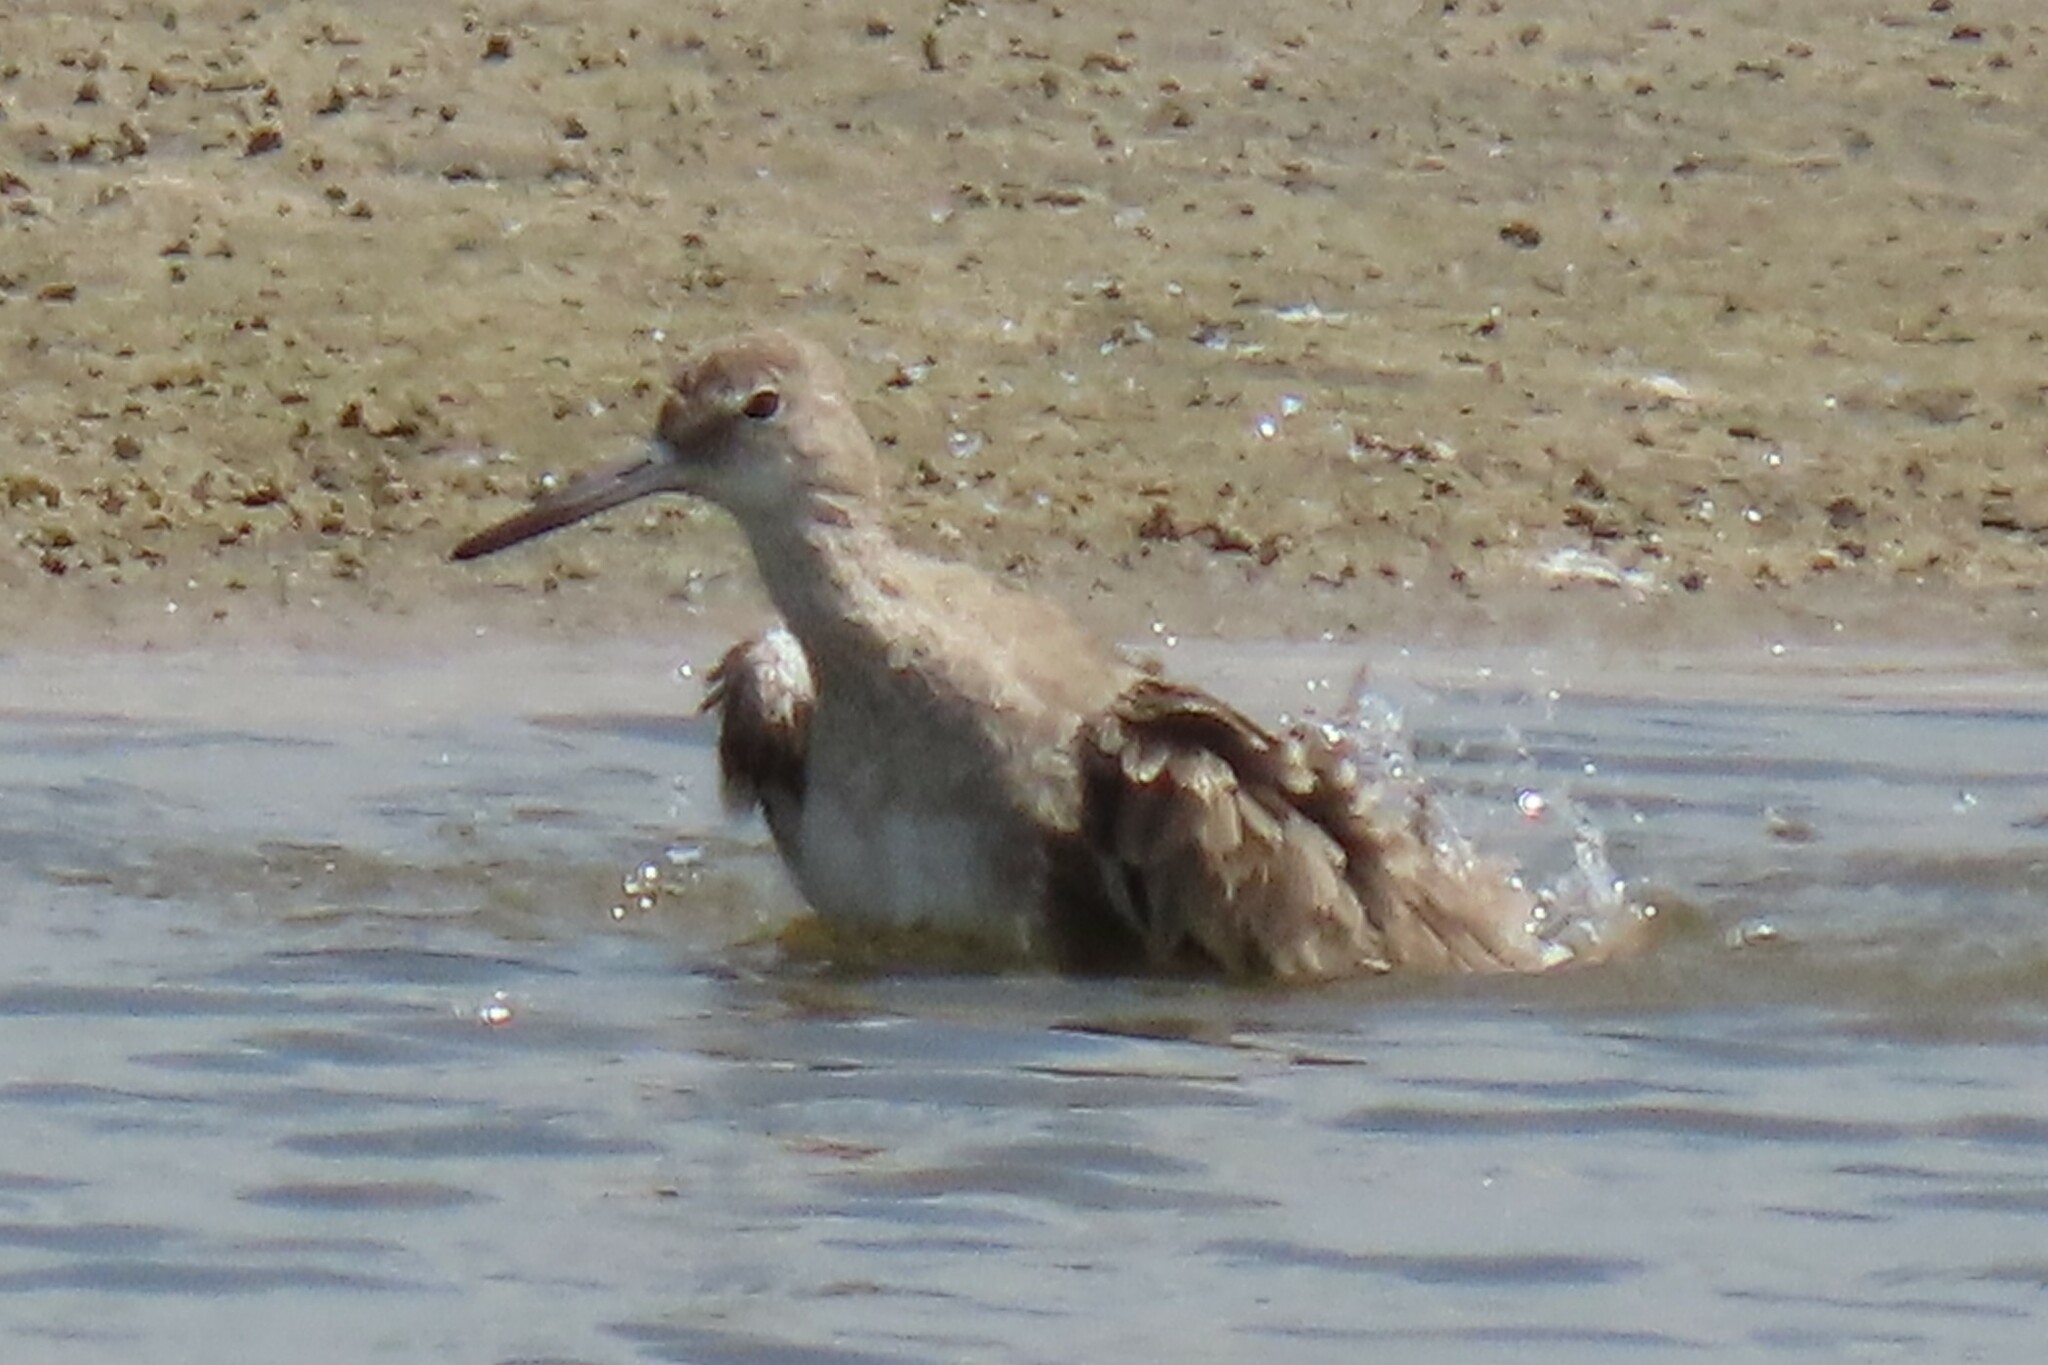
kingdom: Animalia
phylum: Chordata
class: Aves
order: Charadriiformes
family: Scolopacidae
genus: Tringa
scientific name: Tringa semipalmata
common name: Willet
